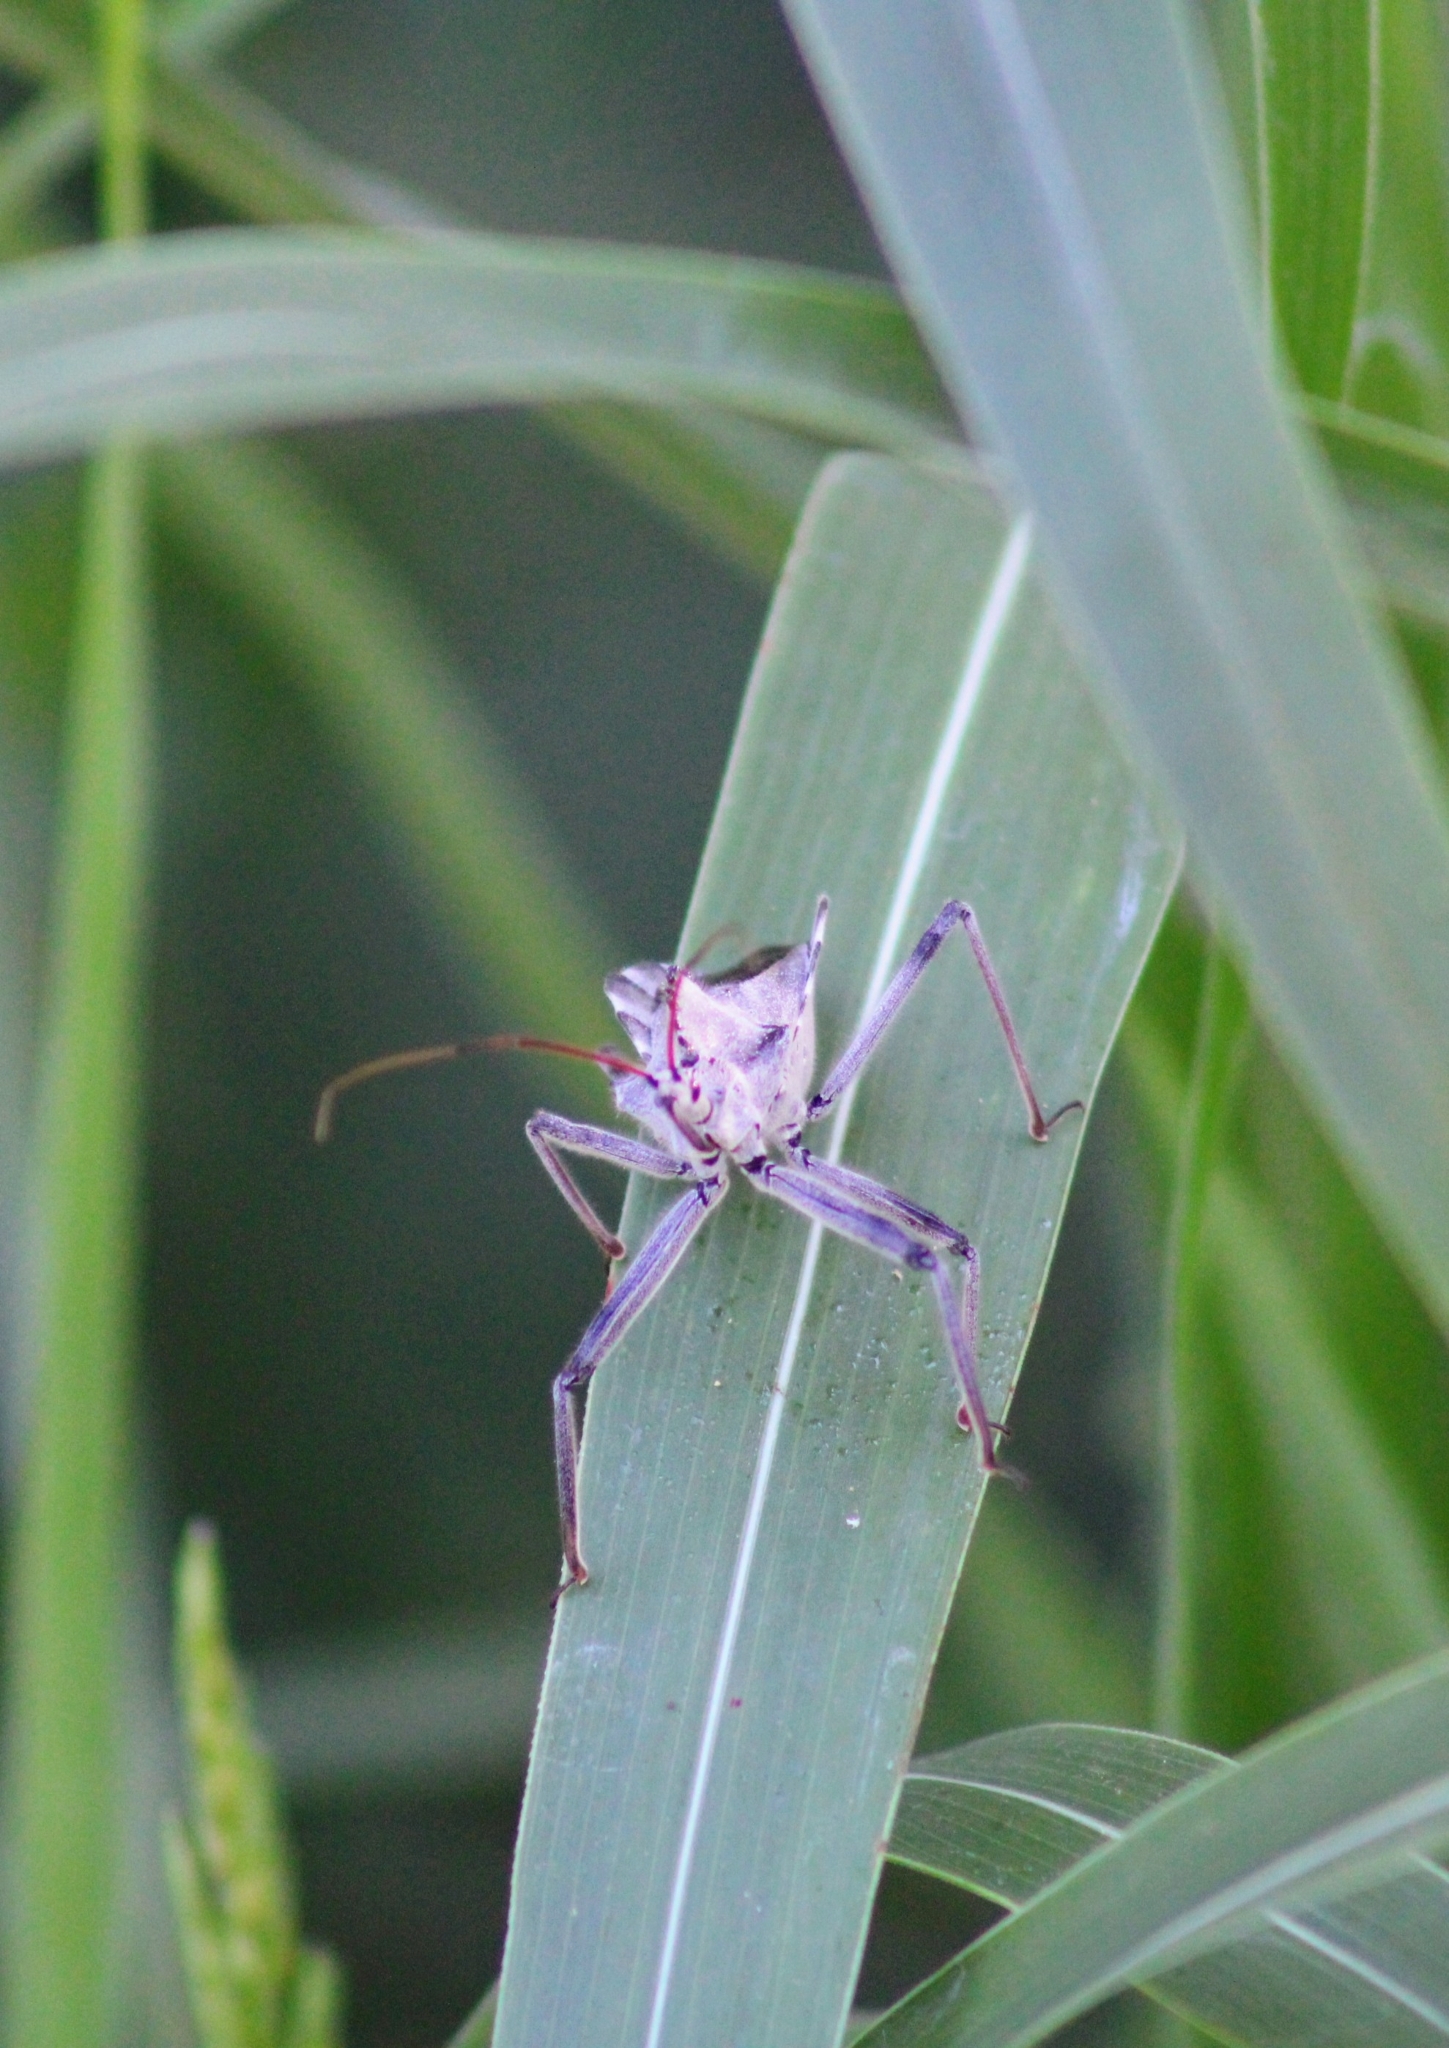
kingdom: Animalia
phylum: Arthropoda
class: Insecta
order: Hemiptera
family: Reduviidae
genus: Arilus
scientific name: Arilus cristatus
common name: North american wheel bug
